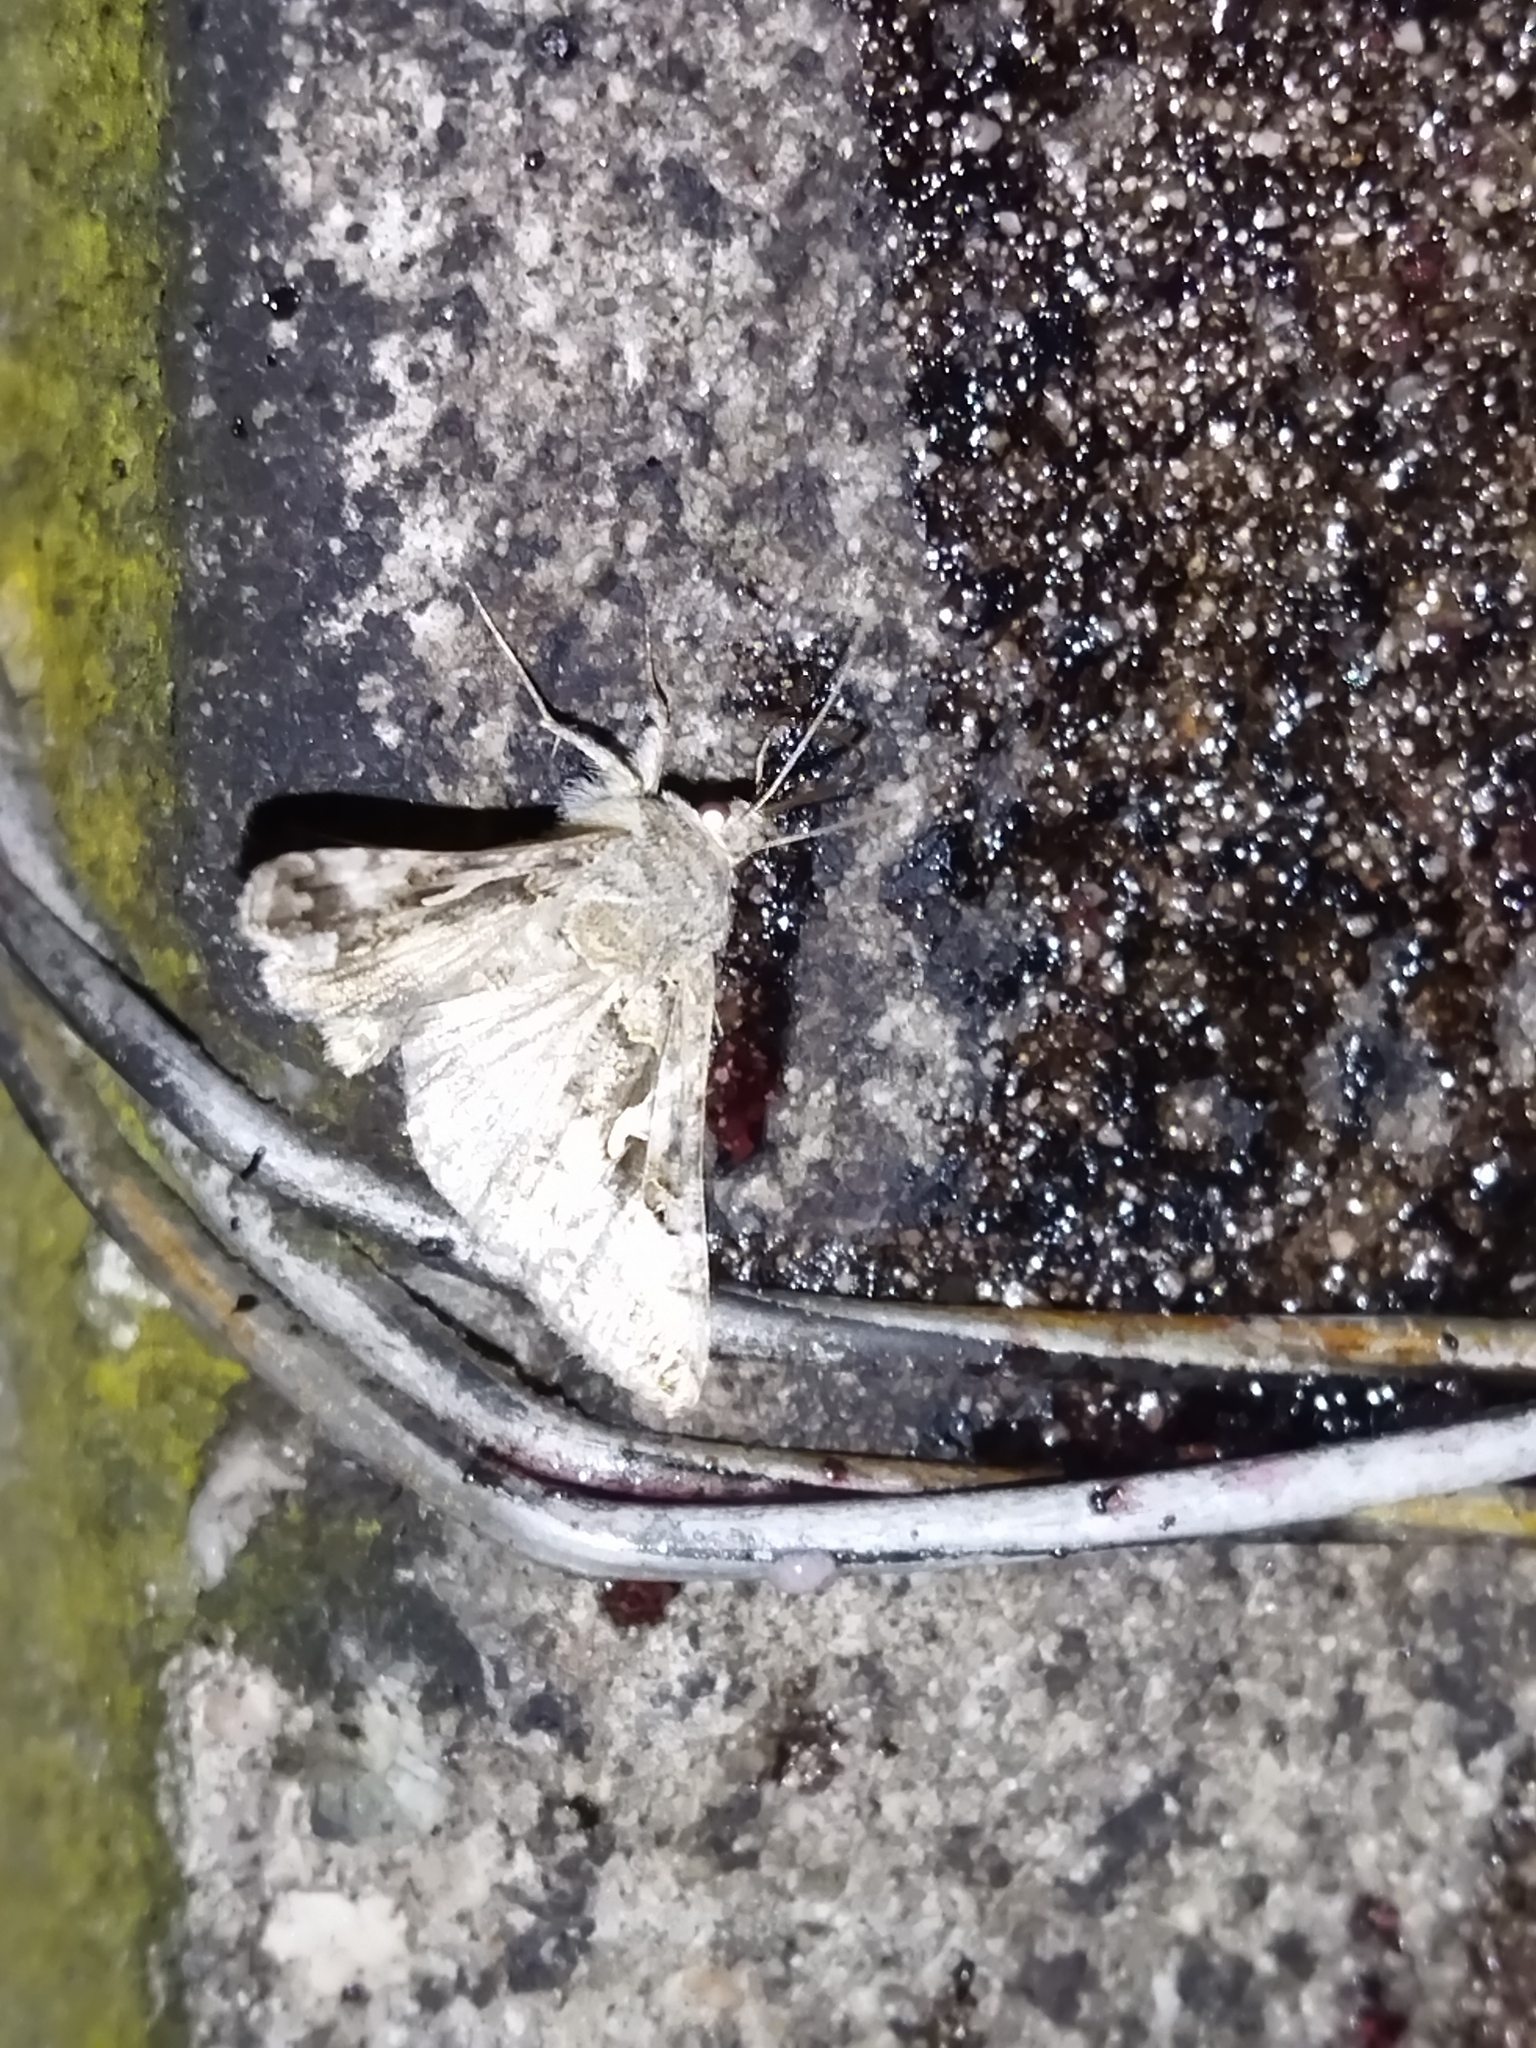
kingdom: Animalia
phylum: Arthropoda
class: Insecta
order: Lepidoptera
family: Noctuidae
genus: Autographa
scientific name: Autographa gamma
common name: Silver y
